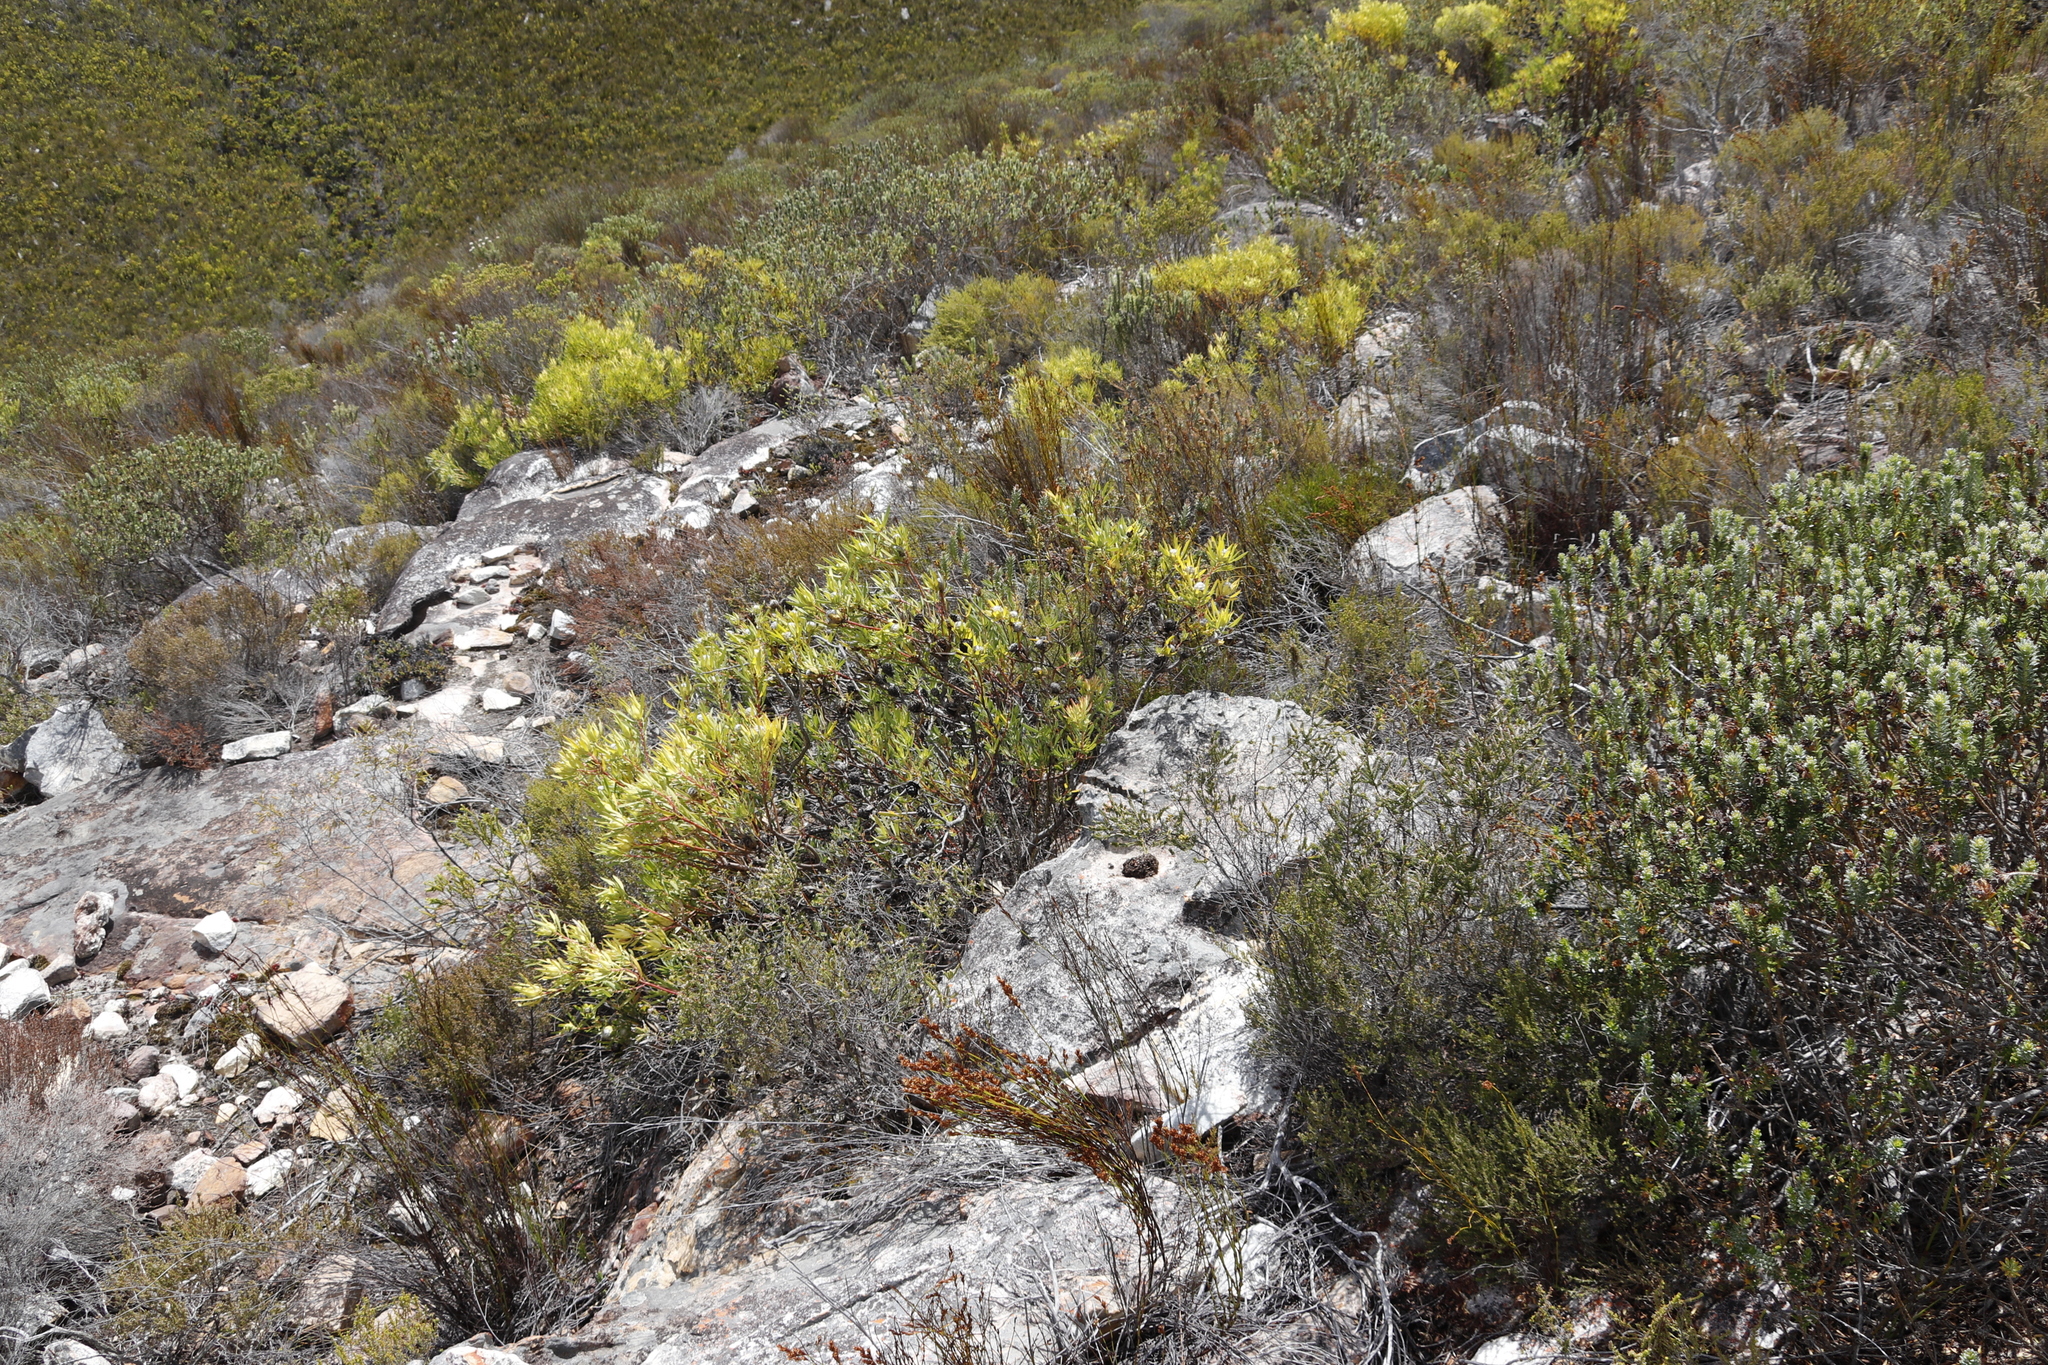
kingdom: Plantae
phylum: Tracheophyta
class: Magnoliopsida
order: Proteales
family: Proteaceae
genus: Leucadendron
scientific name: Leucadendron salignum
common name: Common sunshine conebush
